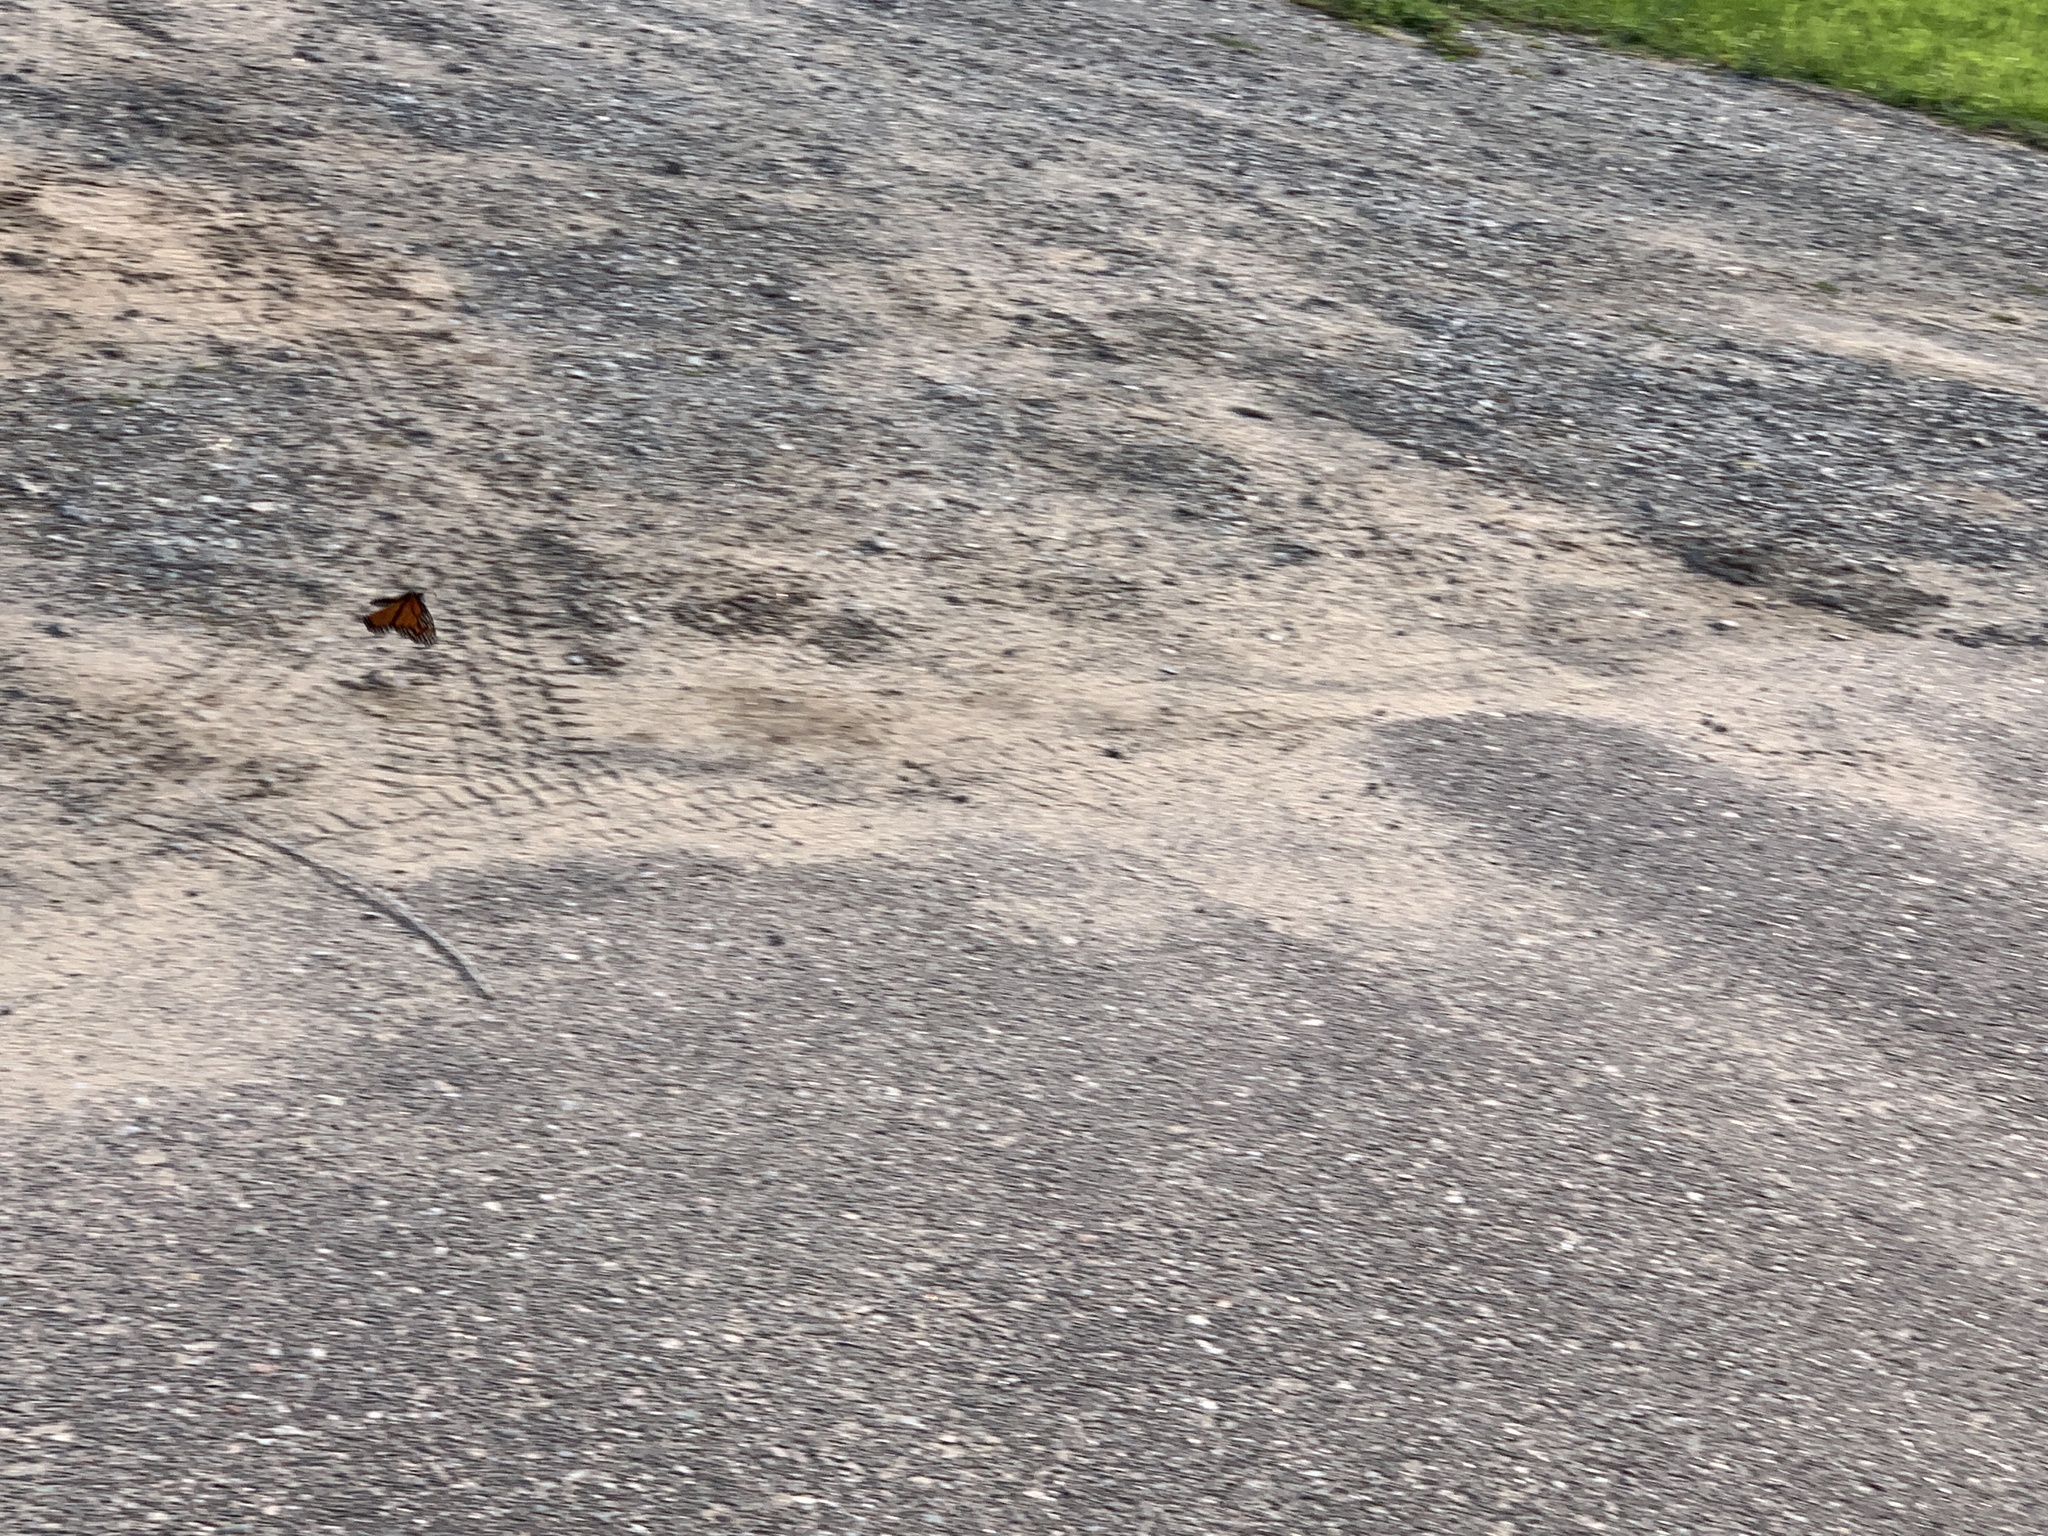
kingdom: Animalia
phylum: Arthropoda
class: Insecta
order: Lepidoptera
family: Nymphalidae
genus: Danaus
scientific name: Danaus plexippus
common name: Monarch
